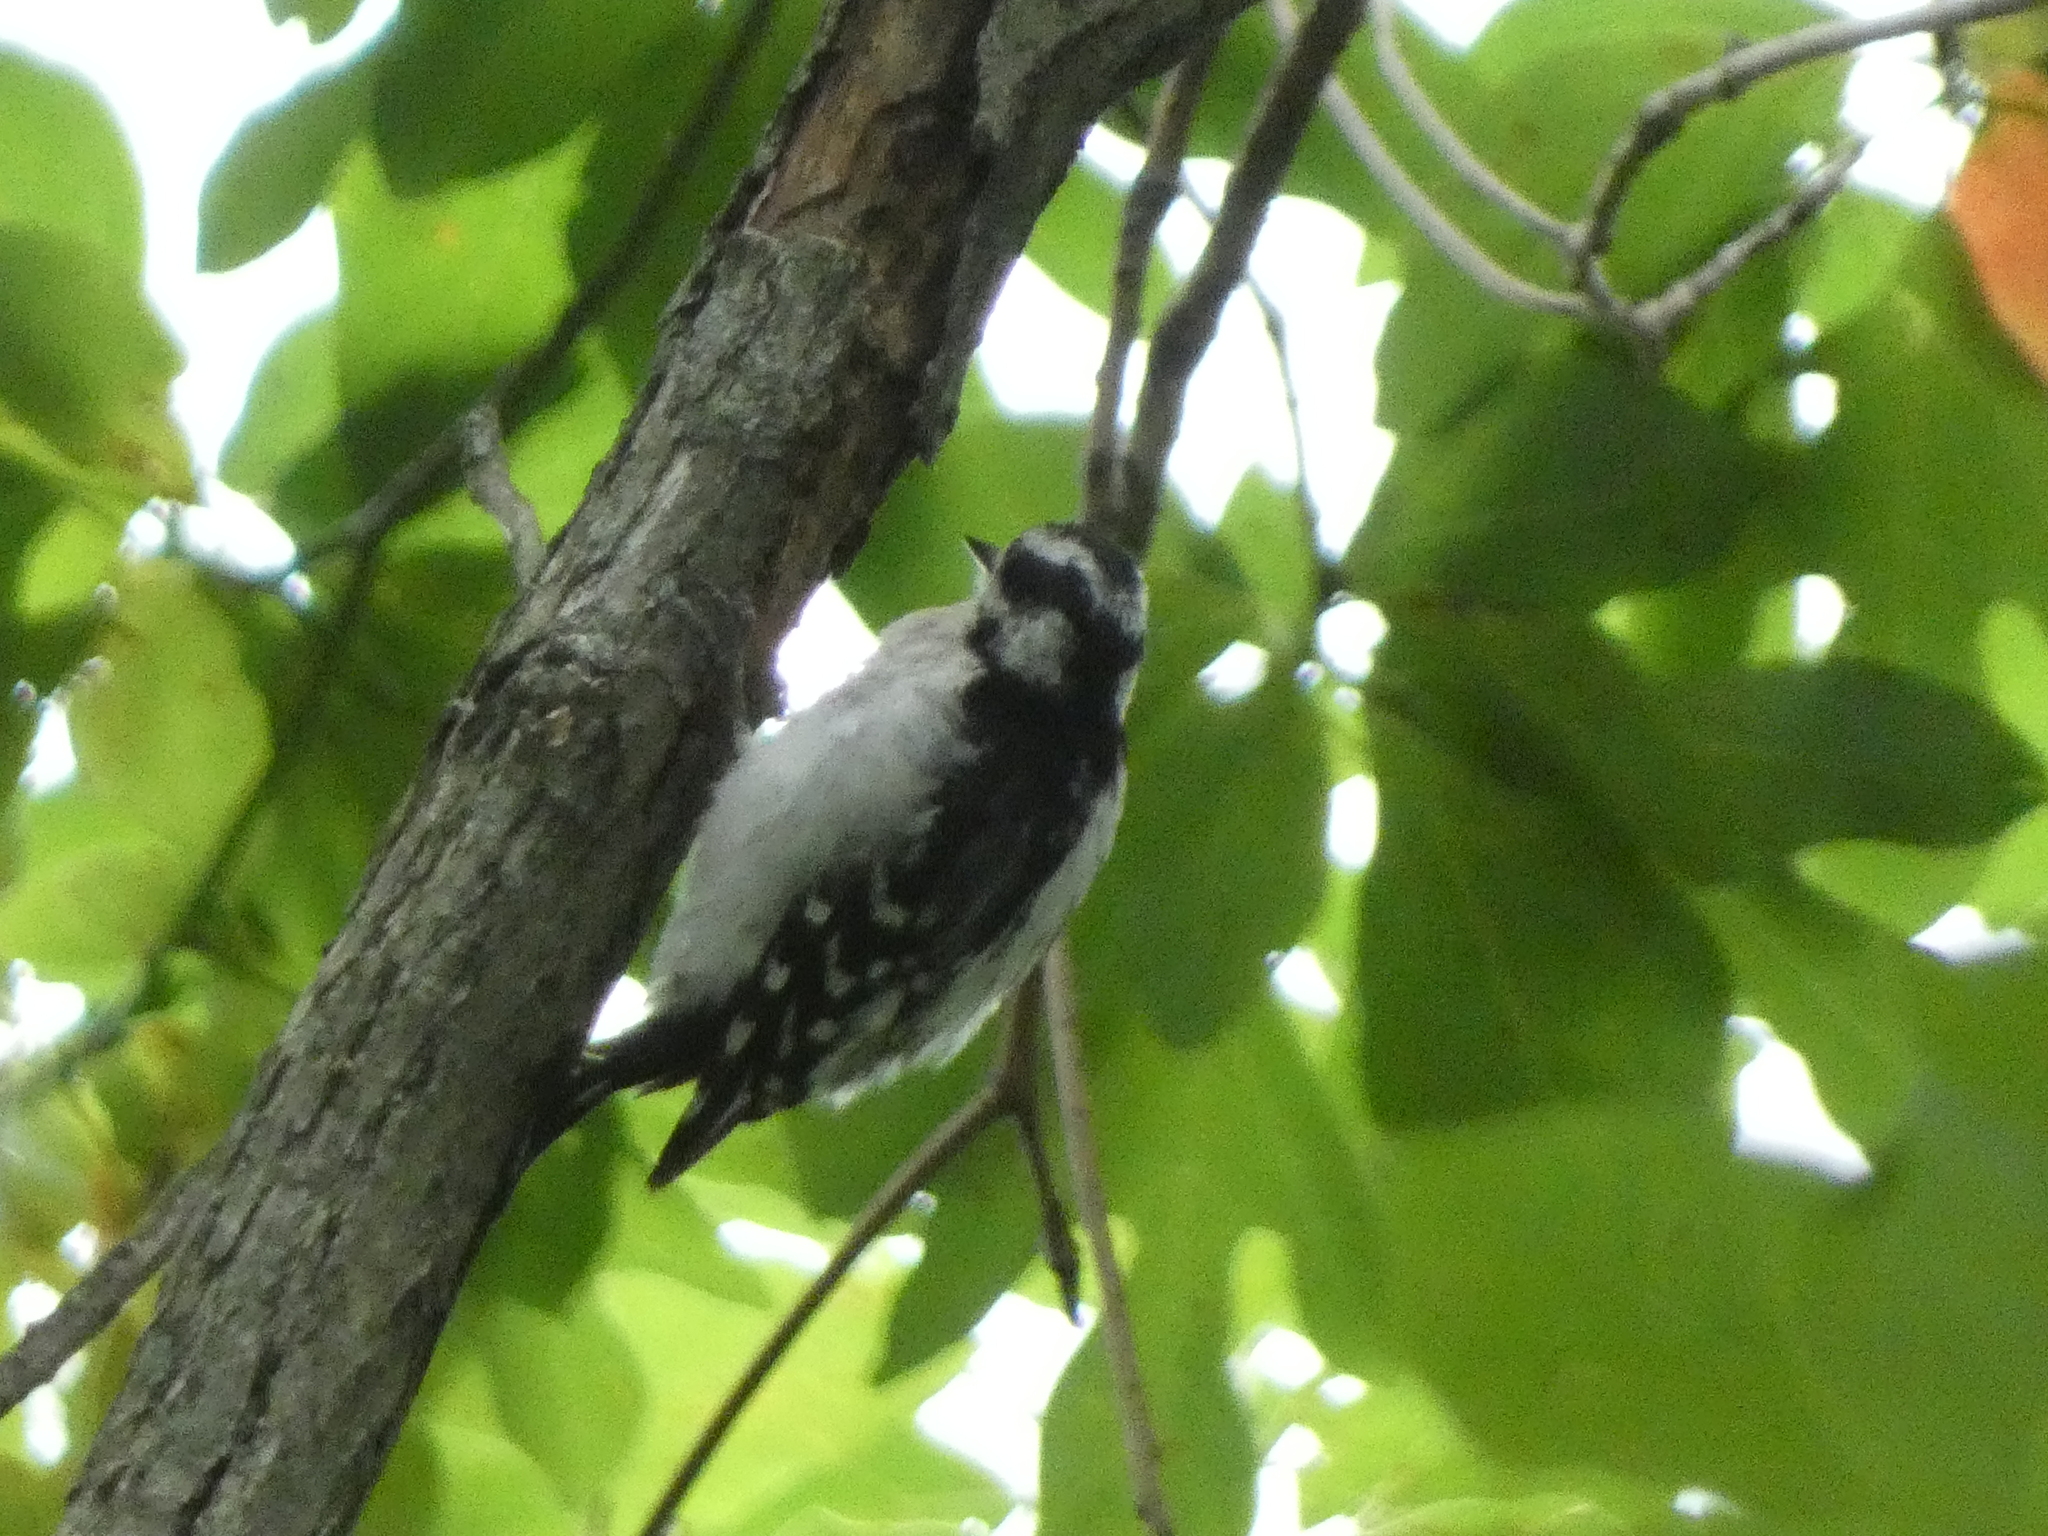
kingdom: Animalia
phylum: Chordata
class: Aves
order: Piciformes
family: Picidae
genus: Dryobates
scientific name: Dryobates pubescens
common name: Downy woodpecker
